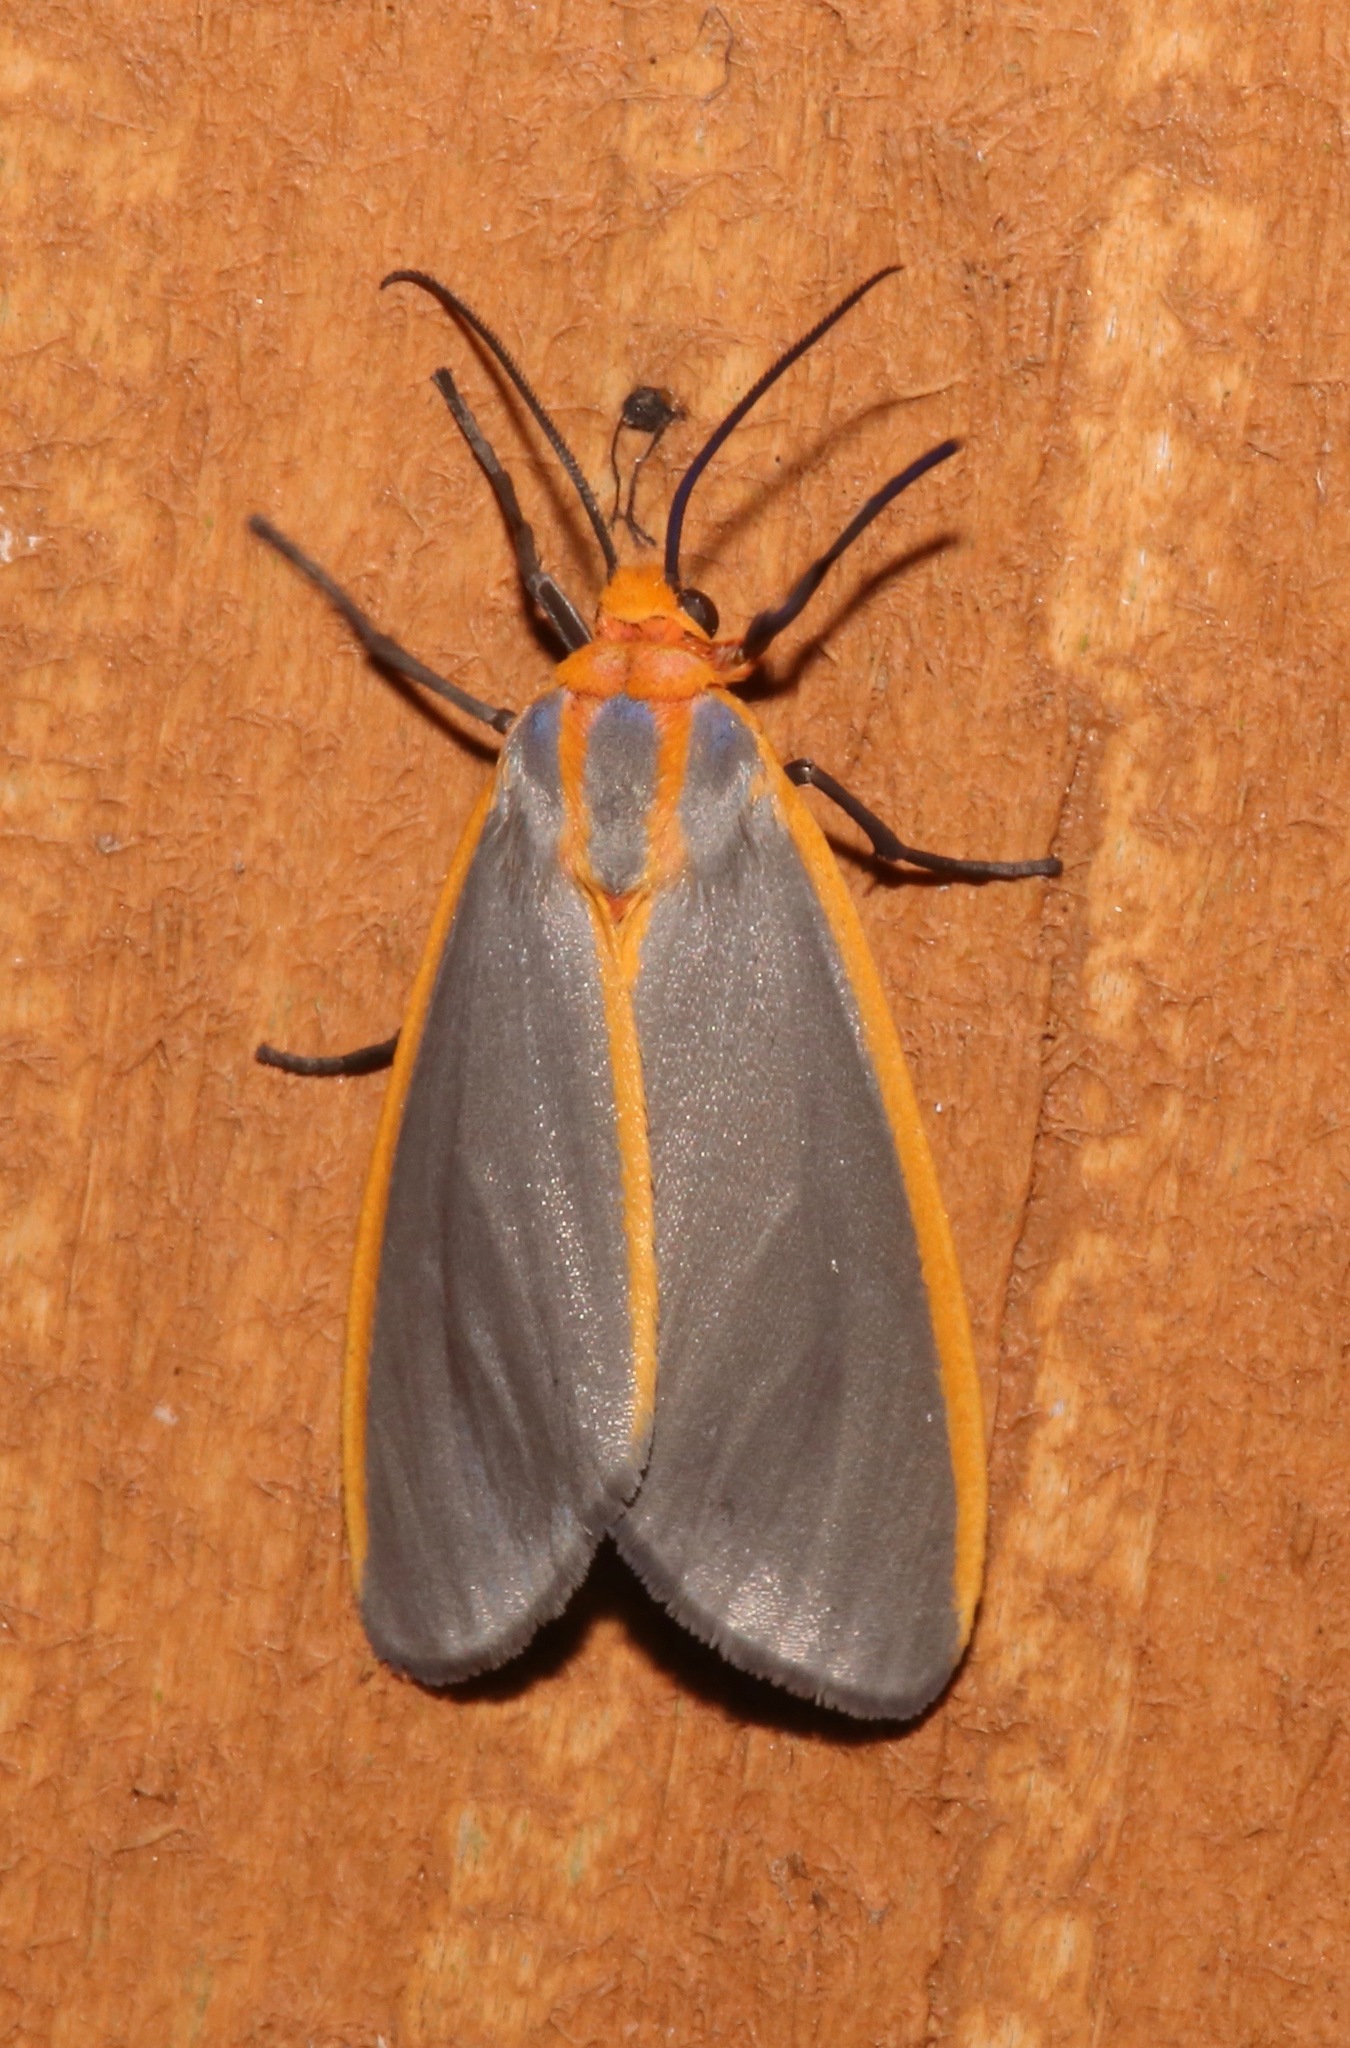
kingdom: Animalia
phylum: Arthropoda
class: Insecta
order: Lepidoptera
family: Erebidae
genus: Pygarctia
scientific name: Pygarctia abdominalis
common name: Yellow-edged pygarctia moth
